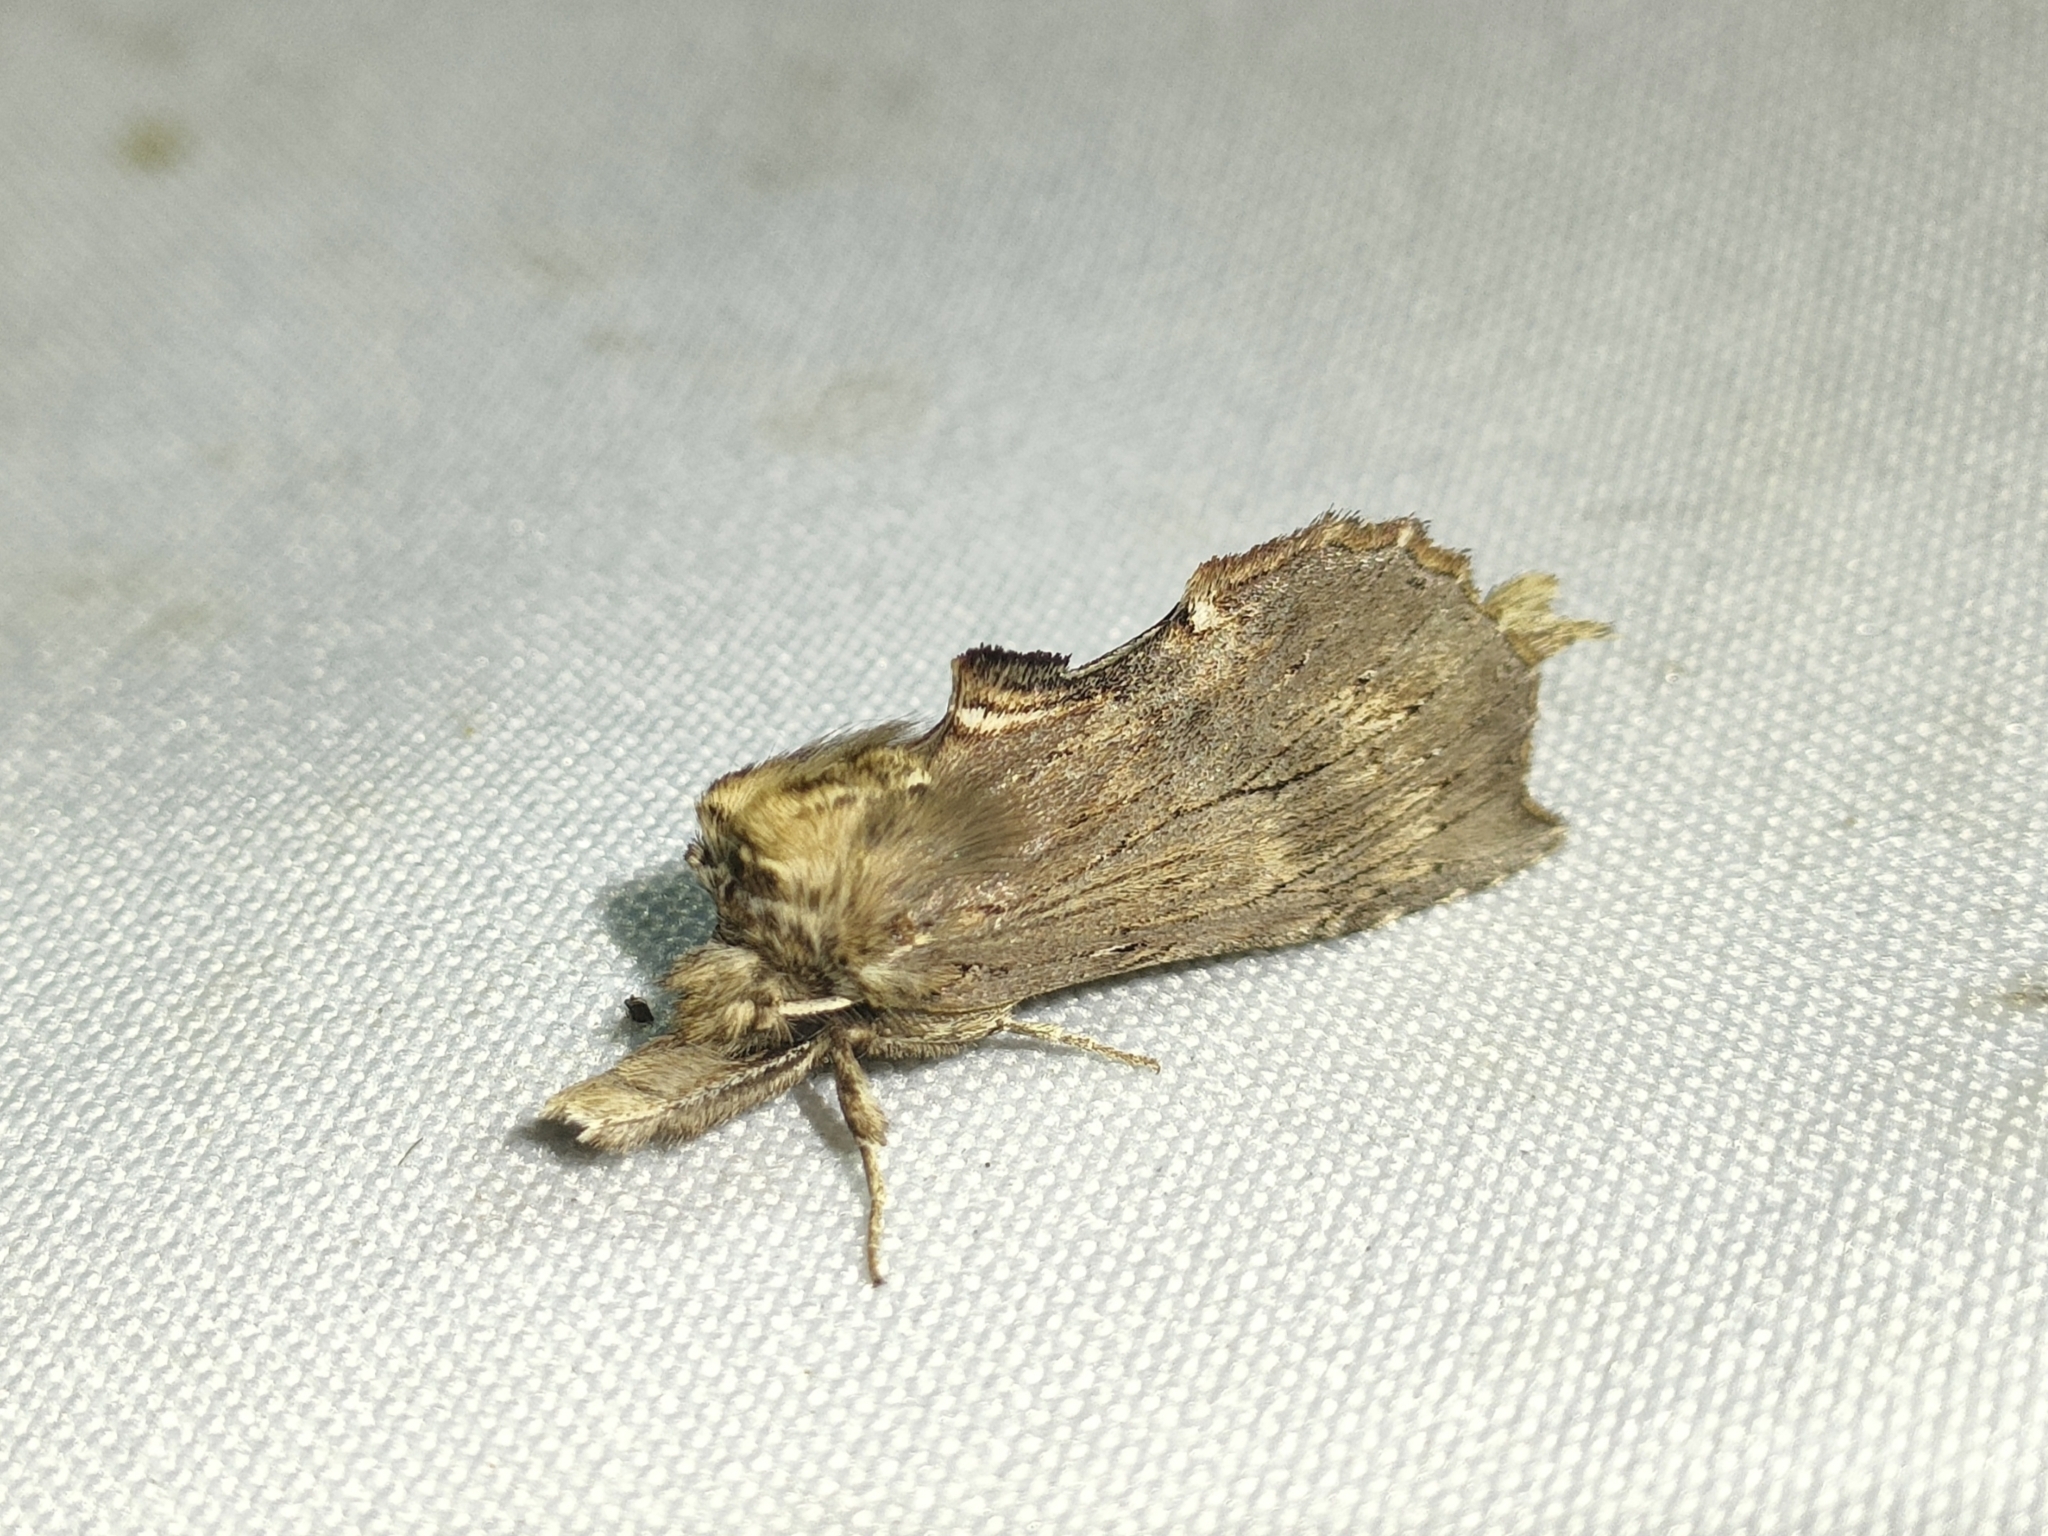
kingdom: Animalia
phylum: Arthropoda
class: Insecta
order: Lepidoptera
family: Notodontidae
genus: Pterostoma
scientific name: Pterostoma palpina
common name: Pale prominent
